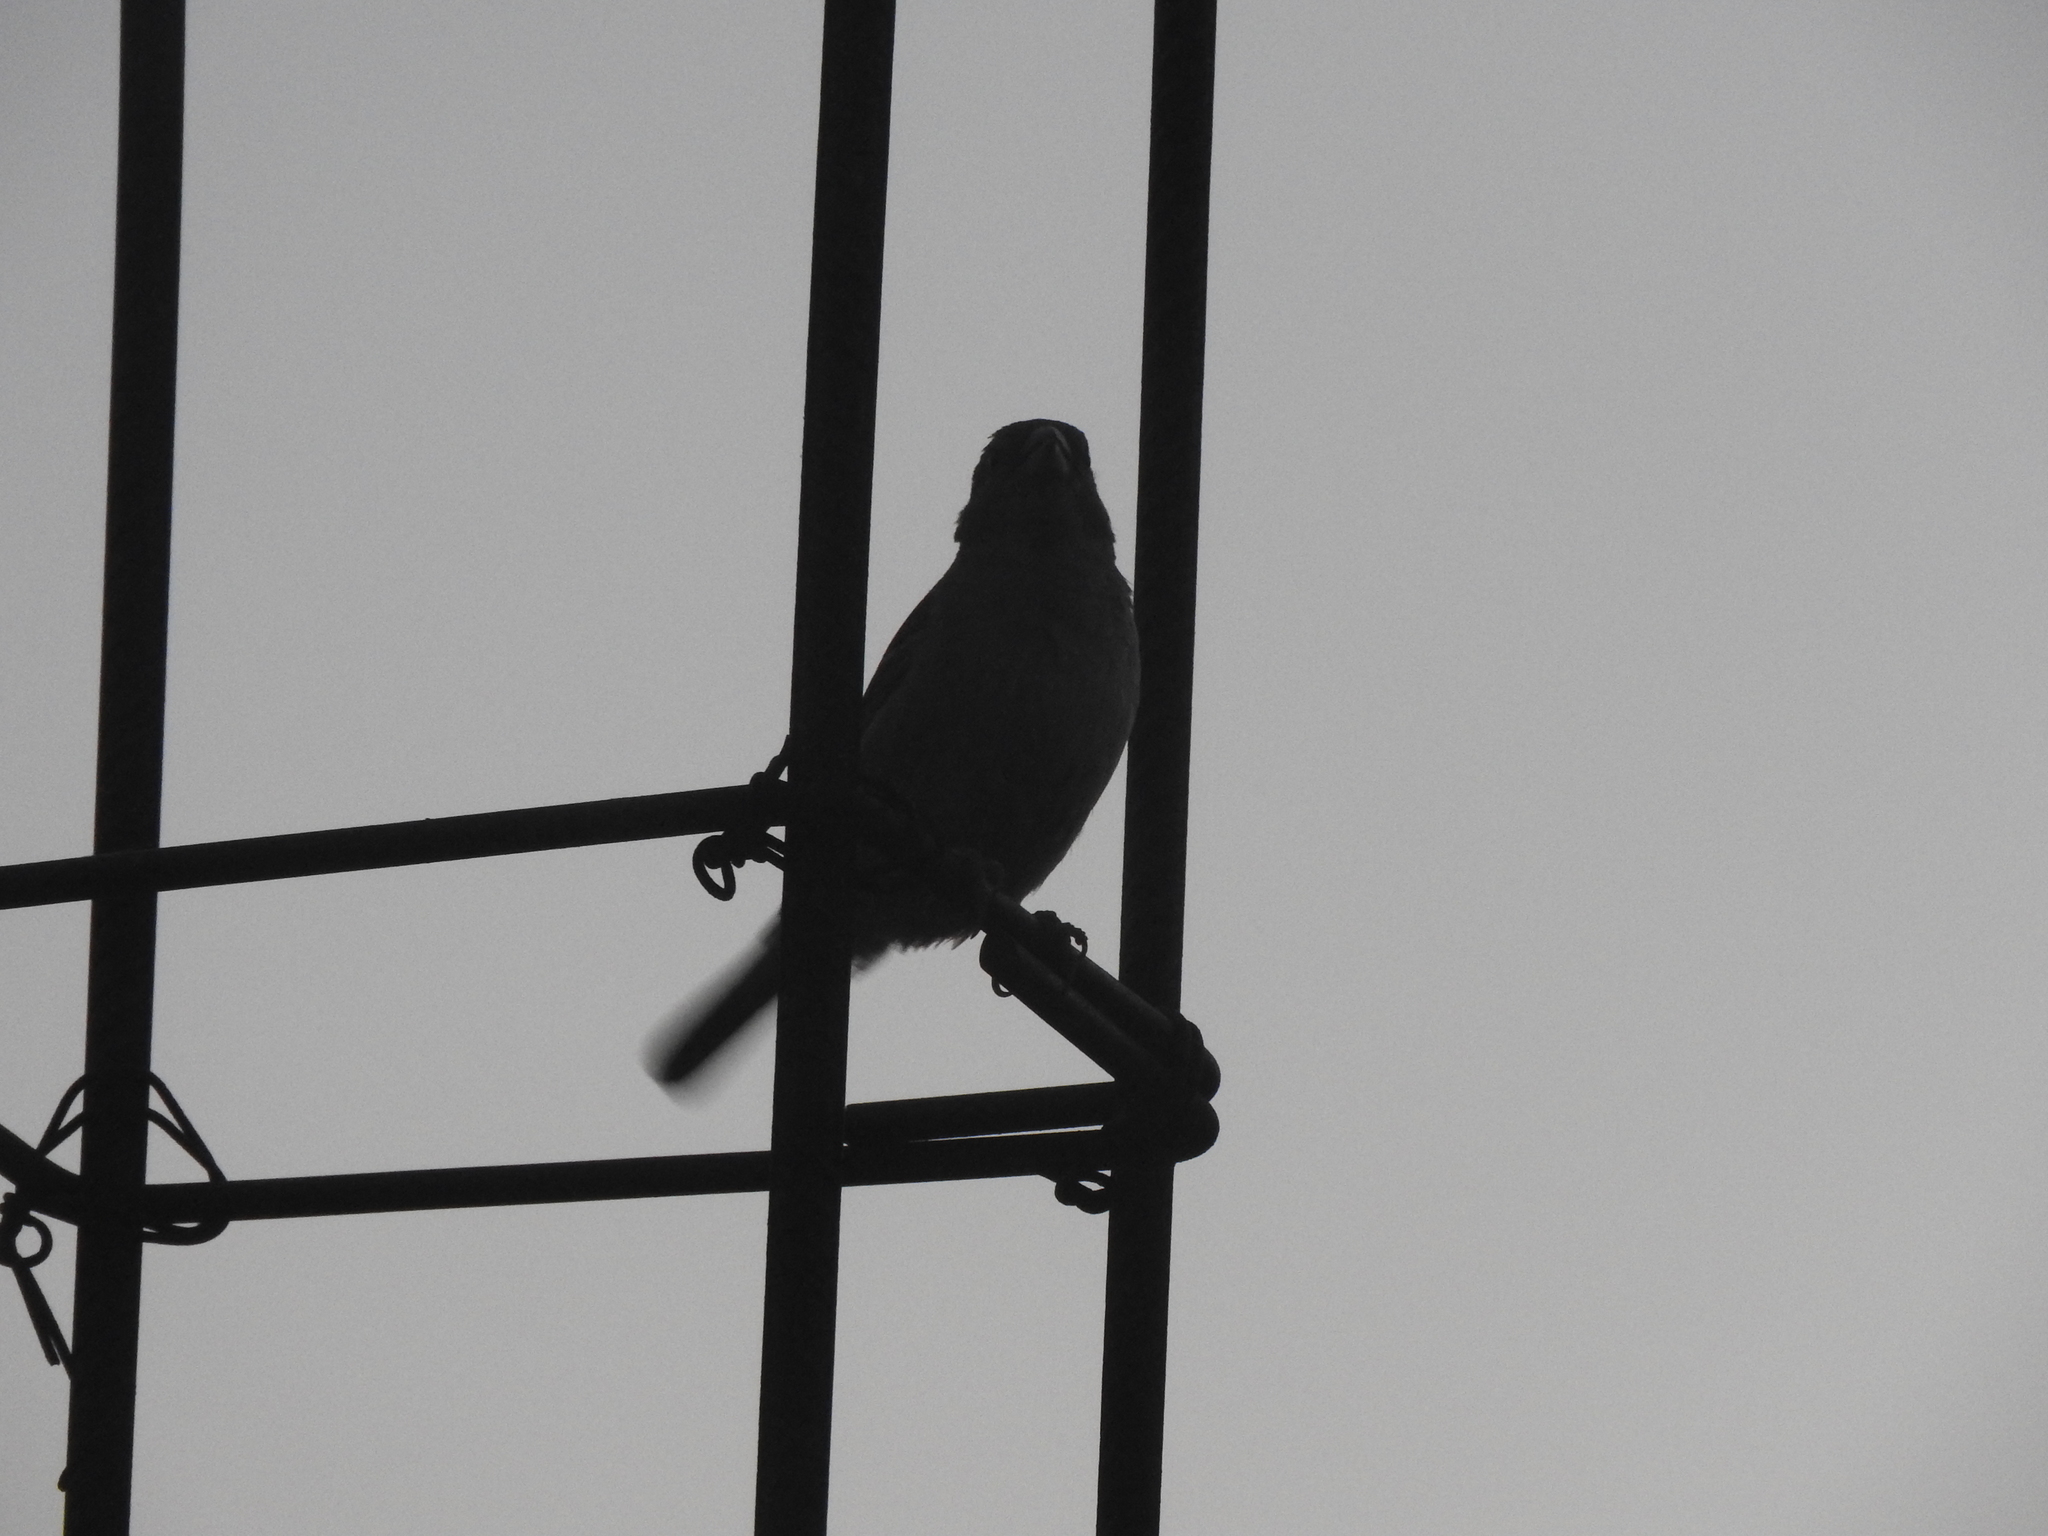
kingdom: Animalia
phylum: Chordata
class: Aves
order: Passeriformes
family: Passeridae
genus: Passer
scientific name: Passer domesticus
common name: House sparrow
